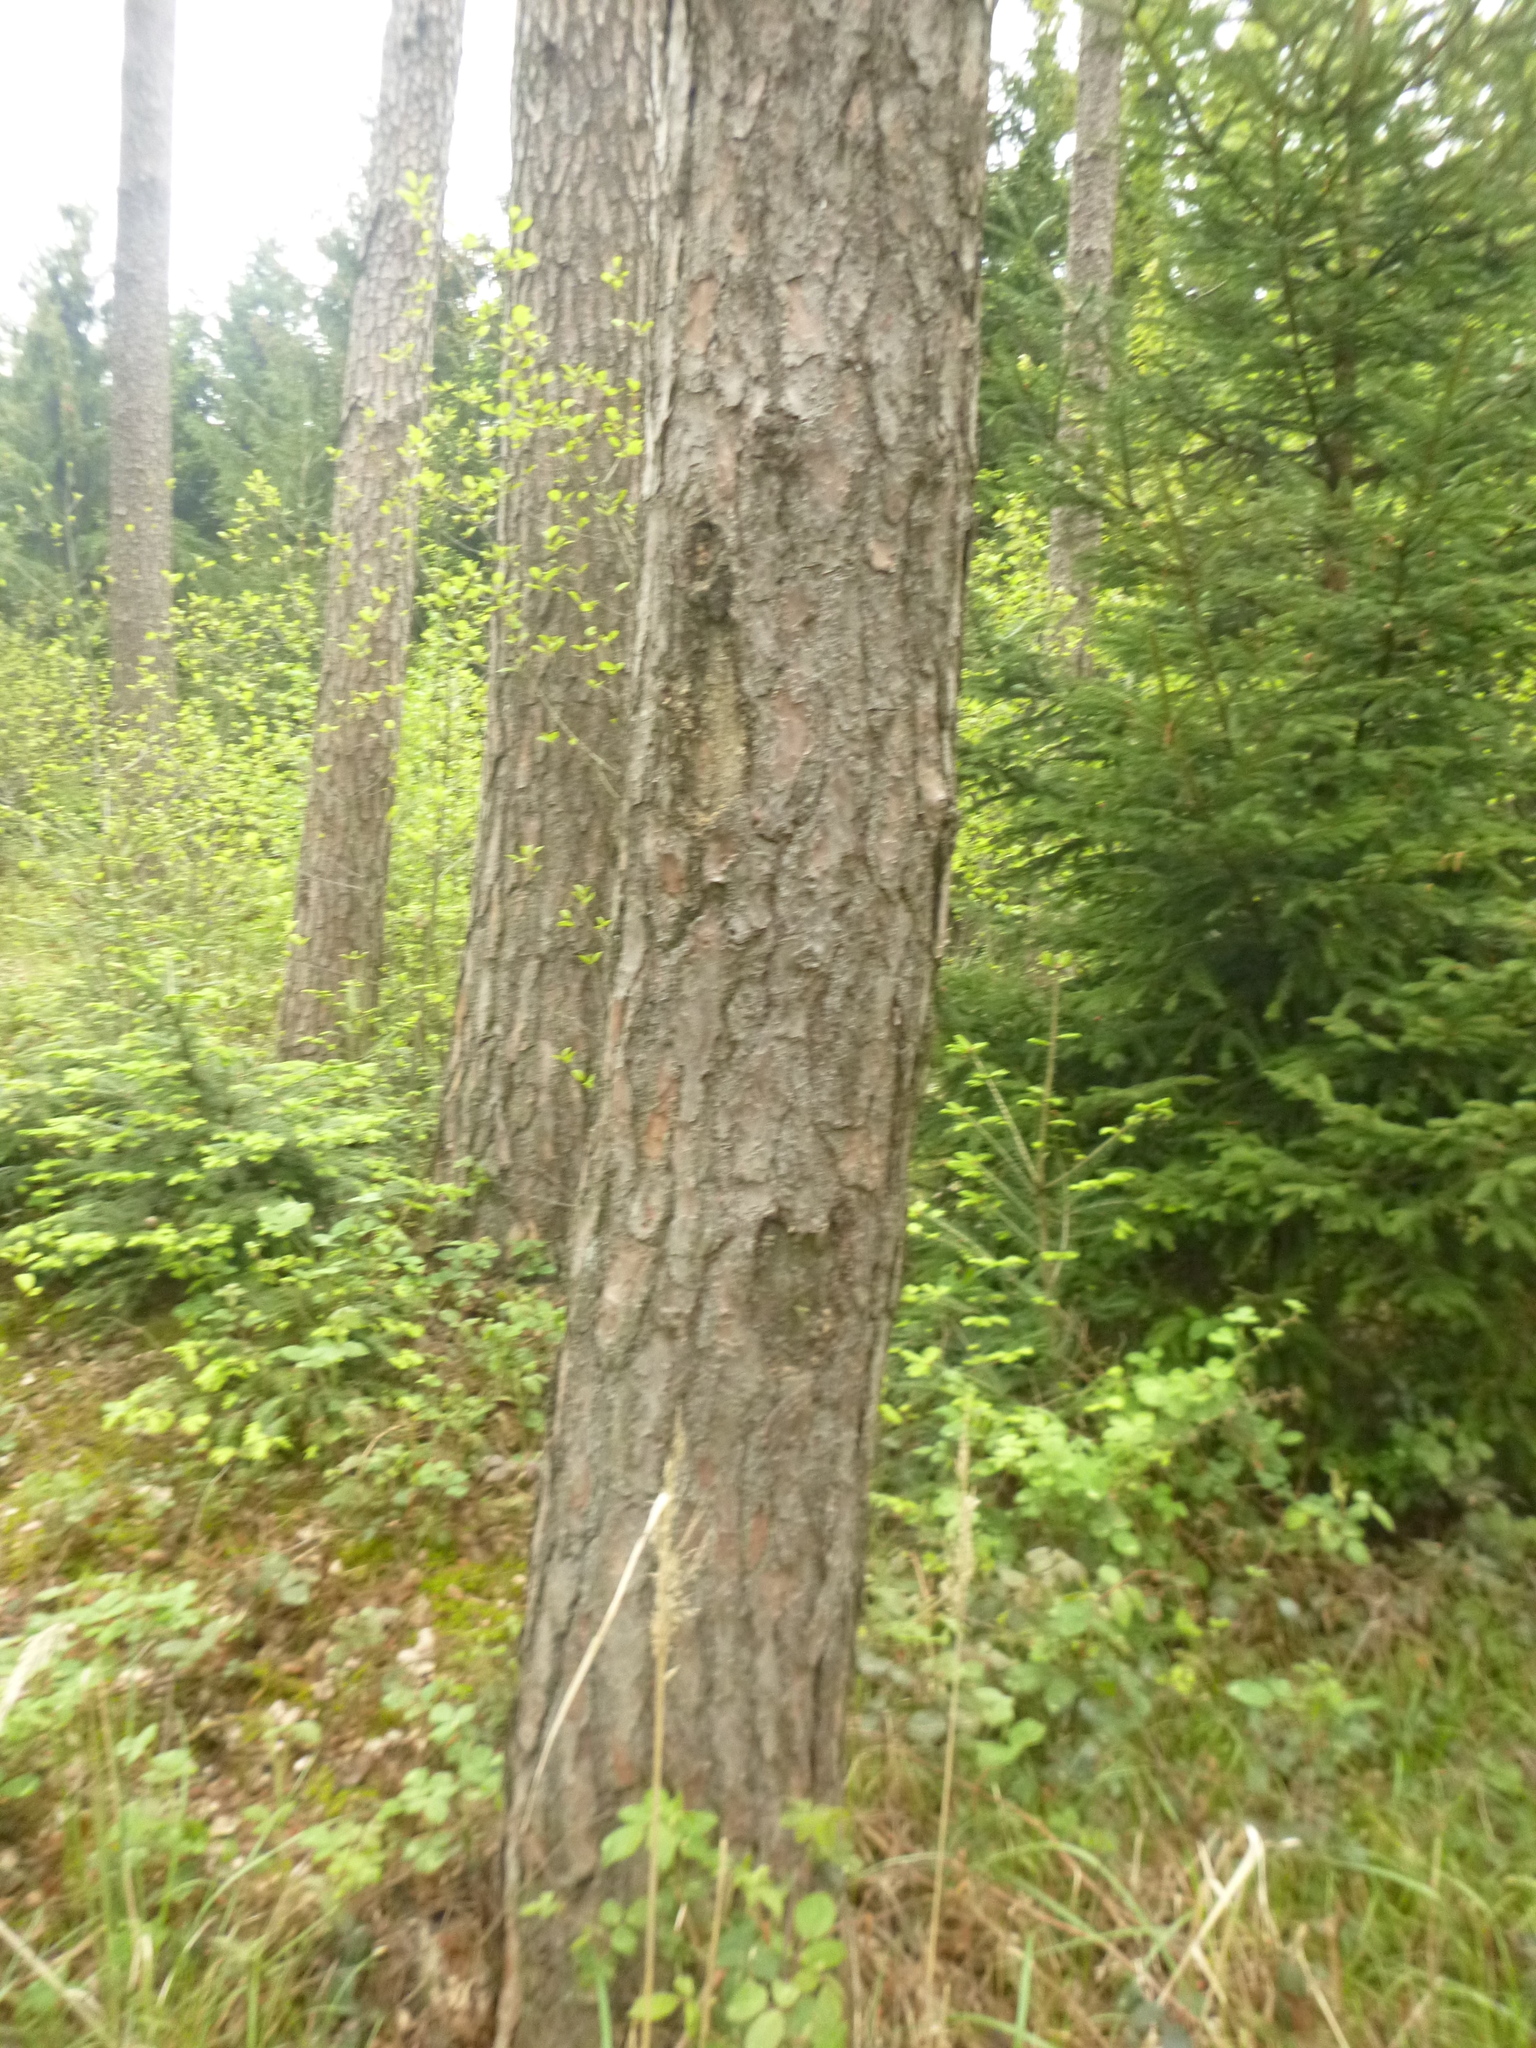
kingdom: Plantae
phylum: Tracheophyta
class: Pinopsida
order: Pinales
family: Pinaceae
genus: Pinus
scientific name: Pinus sylvestris
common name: Scots pine
